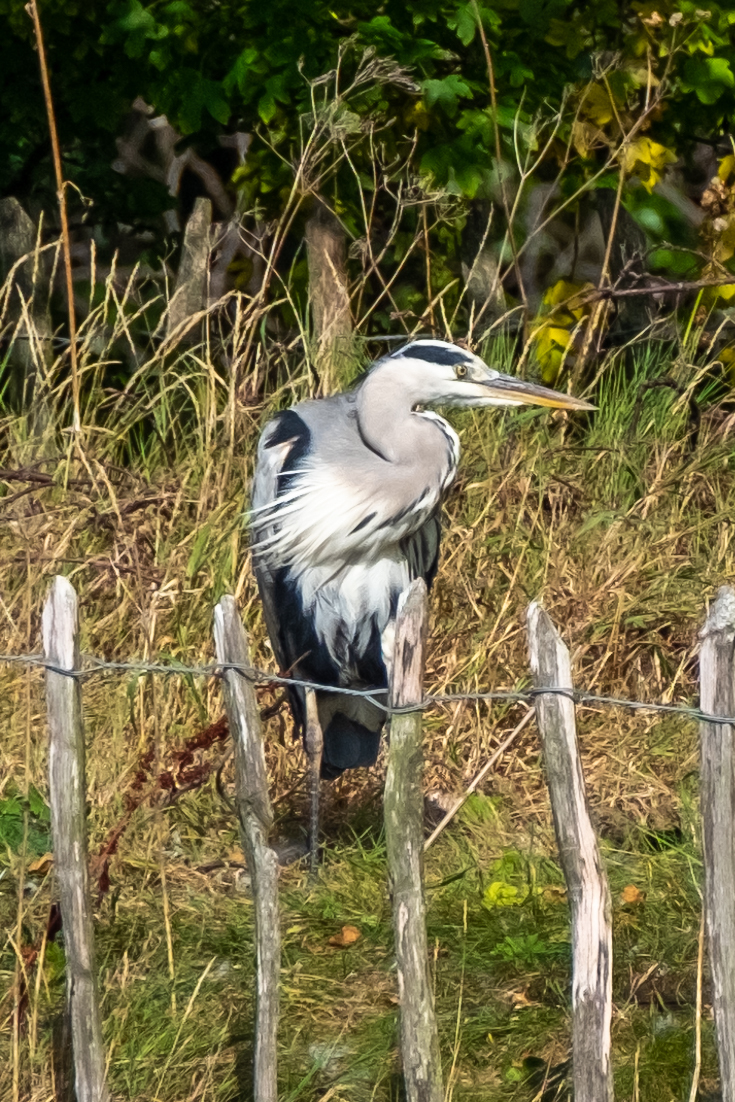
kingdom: Animalia
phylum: Chordata
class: Aves
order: Pelecaniformes
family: Ardeidae
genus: Ardea
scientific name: Ardea cinerea
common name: Grey heron
